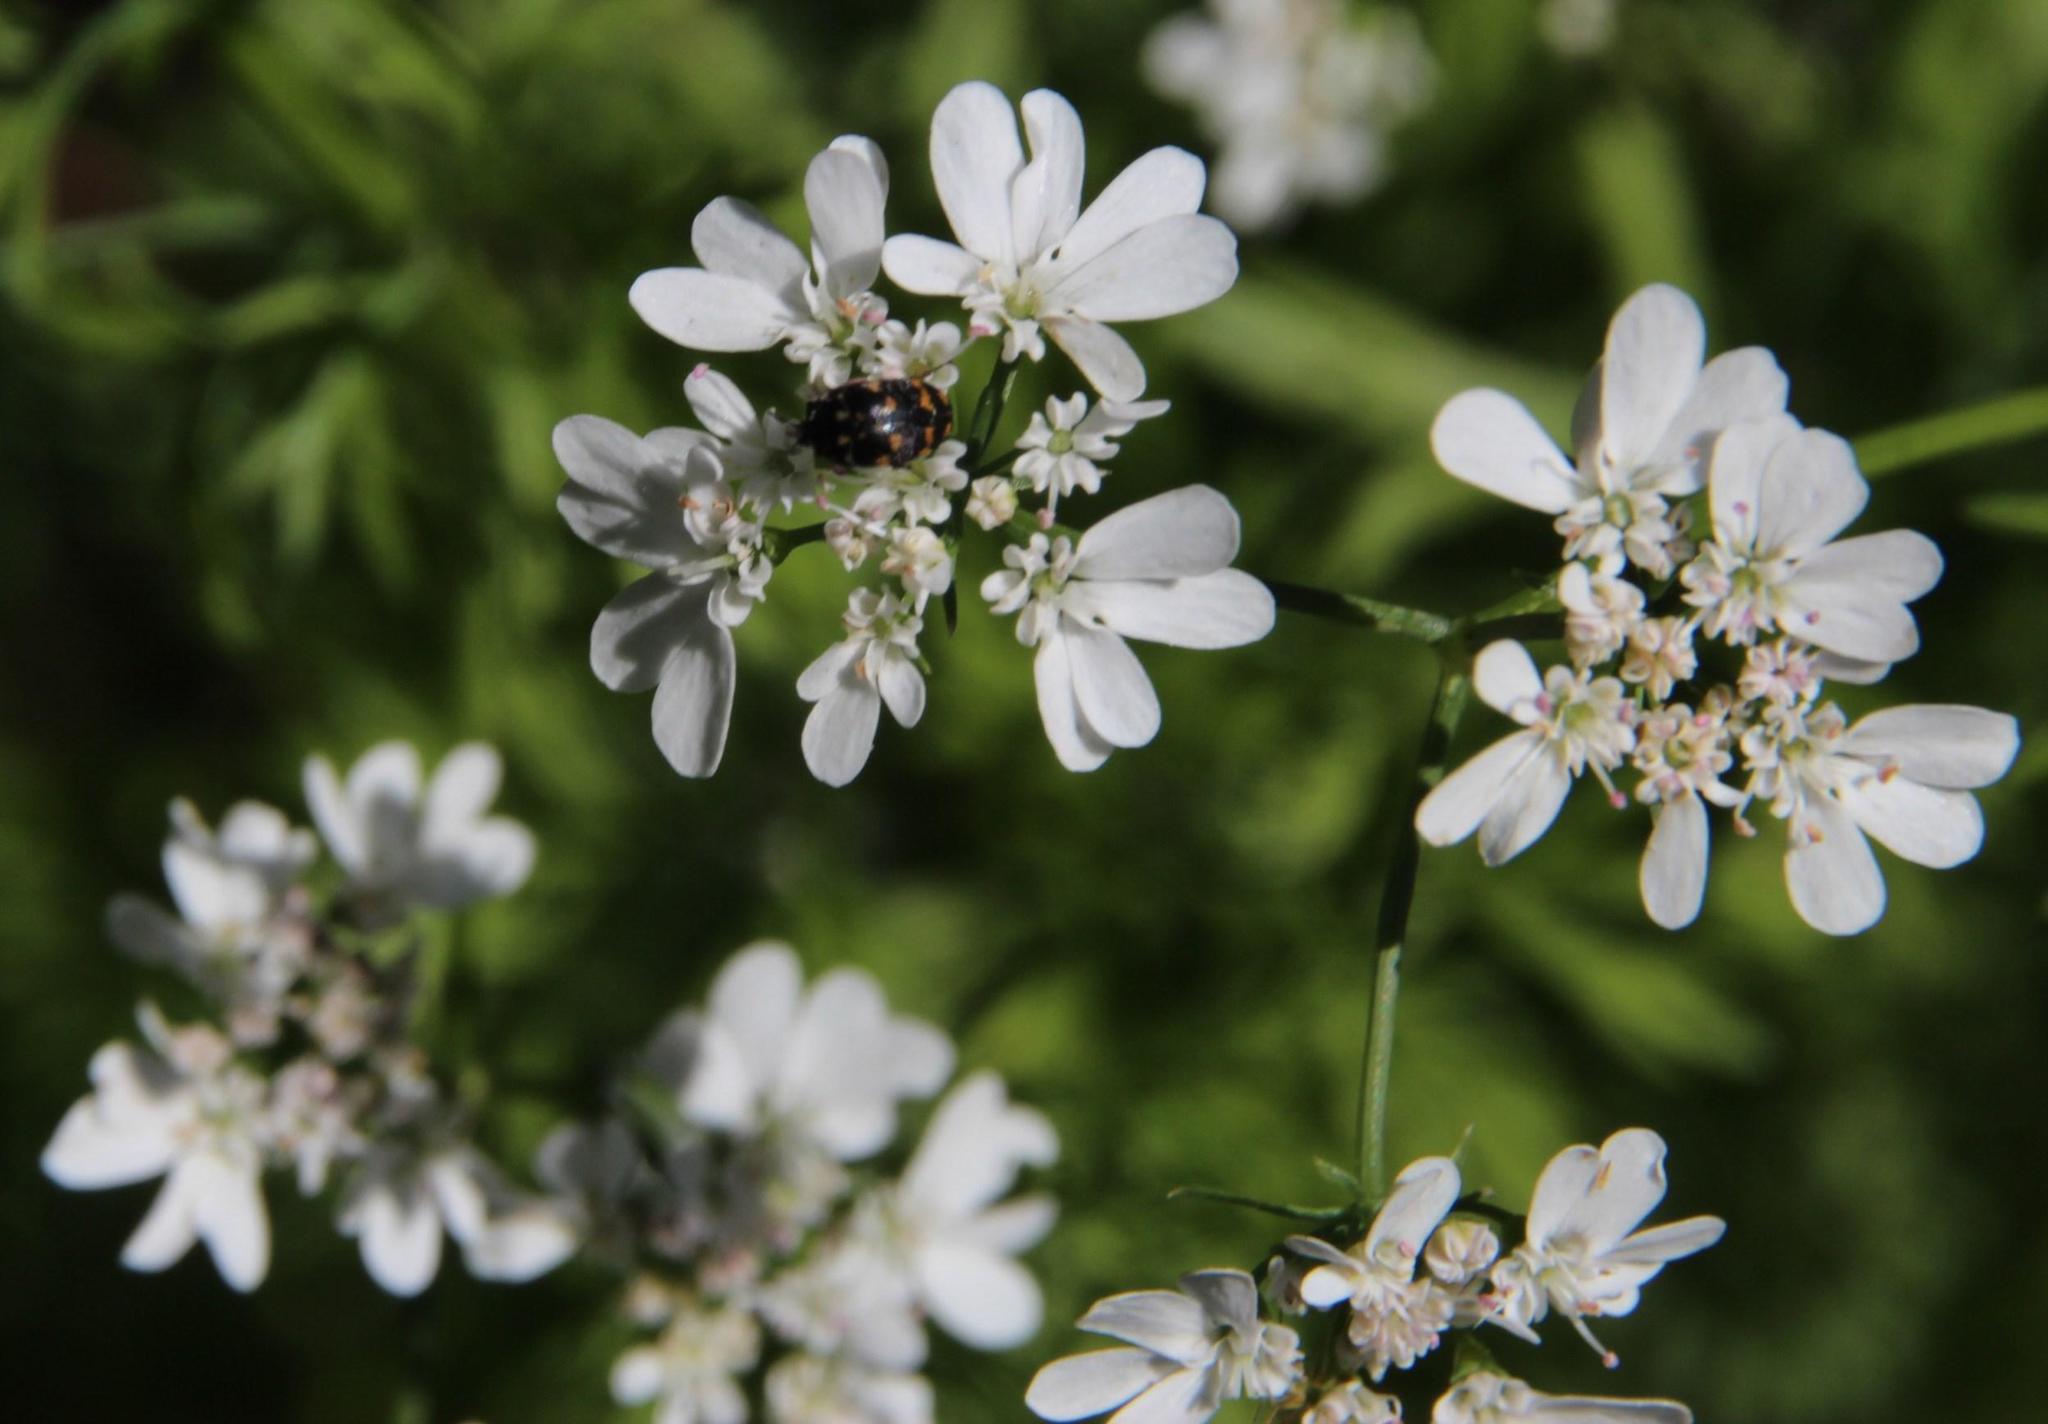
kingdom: Plantae
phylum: Tracheophyta
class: Magnoliopsida
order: Apiales
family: Apiaceae
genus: Coriandrum
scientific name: Coriandrum sativum
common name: Coriander
